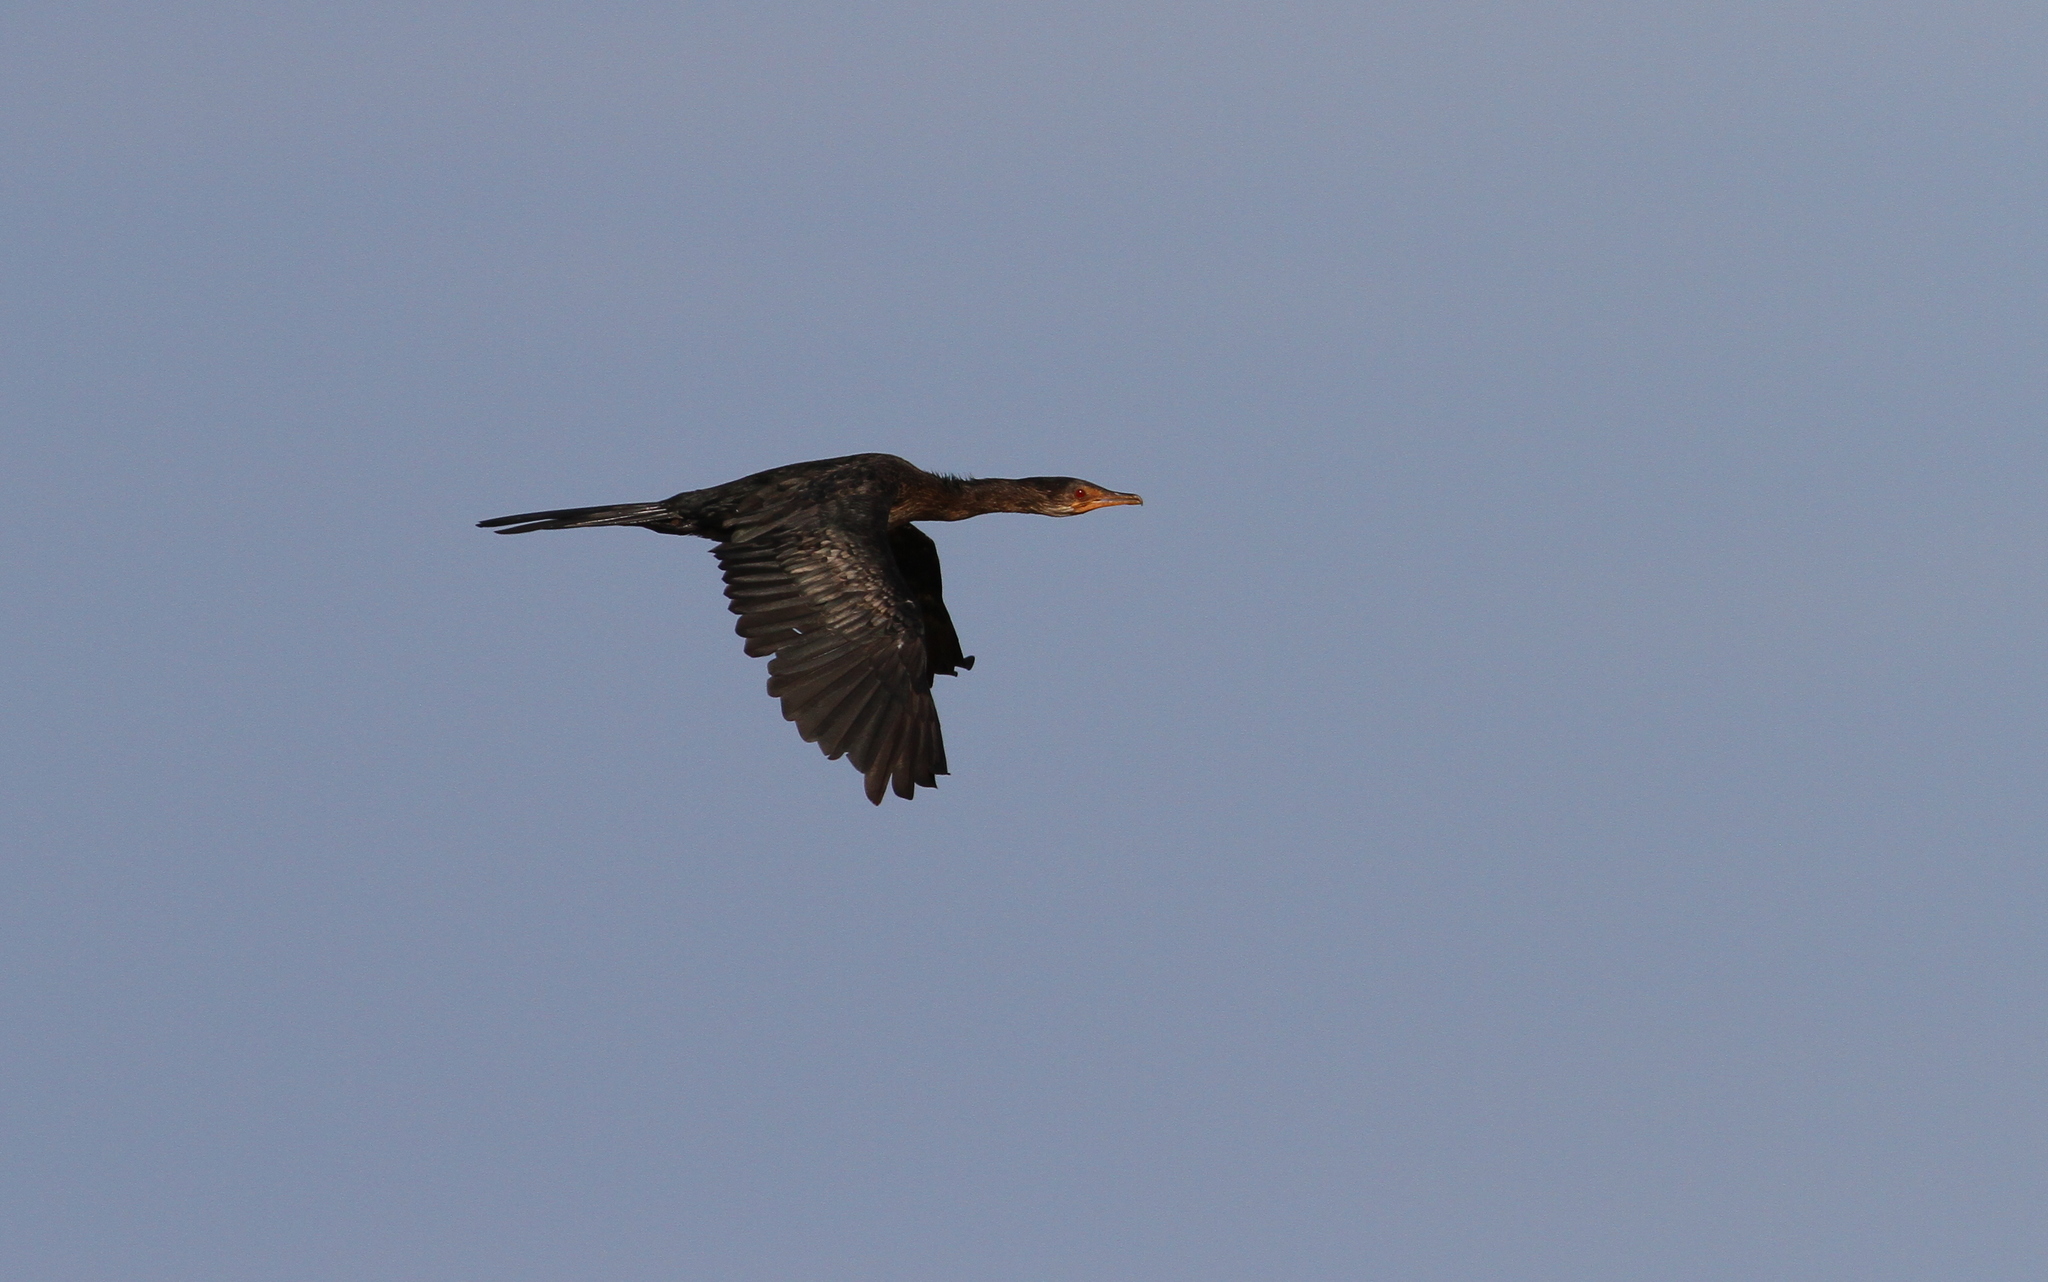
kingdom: Animalia
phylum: Chordata
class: Aves
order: Suliformes
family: Phalacrocoracidae
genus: Microcarbo
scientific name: Microcarbo africanus
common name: Long-tailed cormorant
